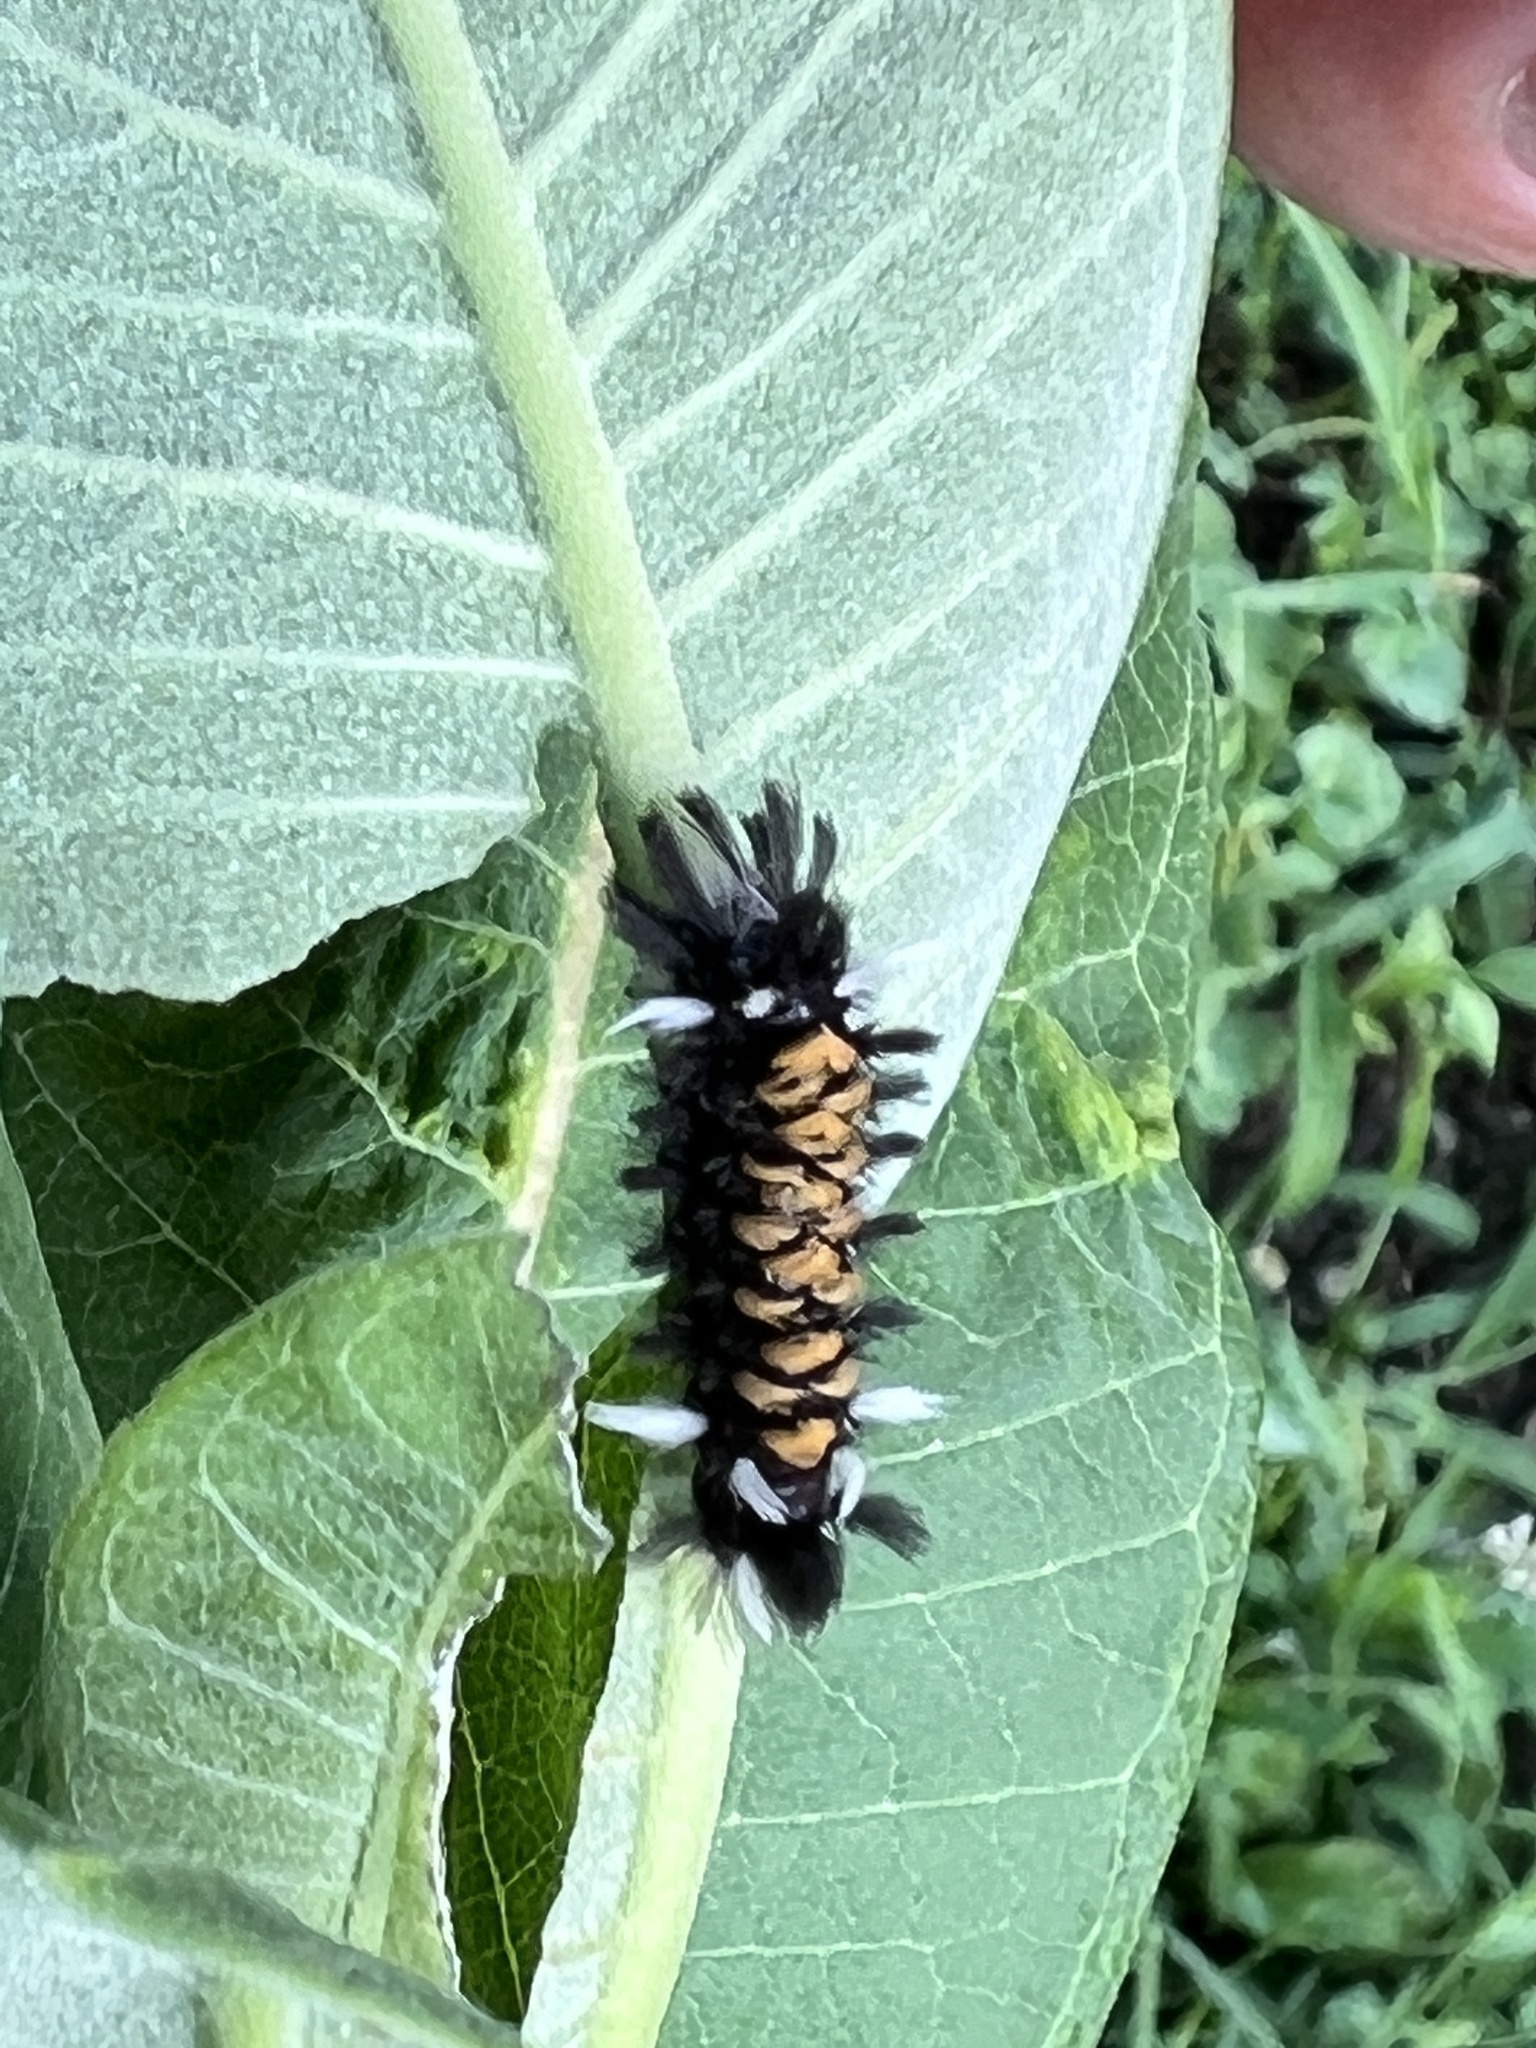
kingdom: Animalia
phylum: Arthropoda
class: Insecta
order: Lepidoptera
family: Erebidae
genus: Euchaetes
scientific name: Euchaetes egle
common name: Milkweed tussock moth
